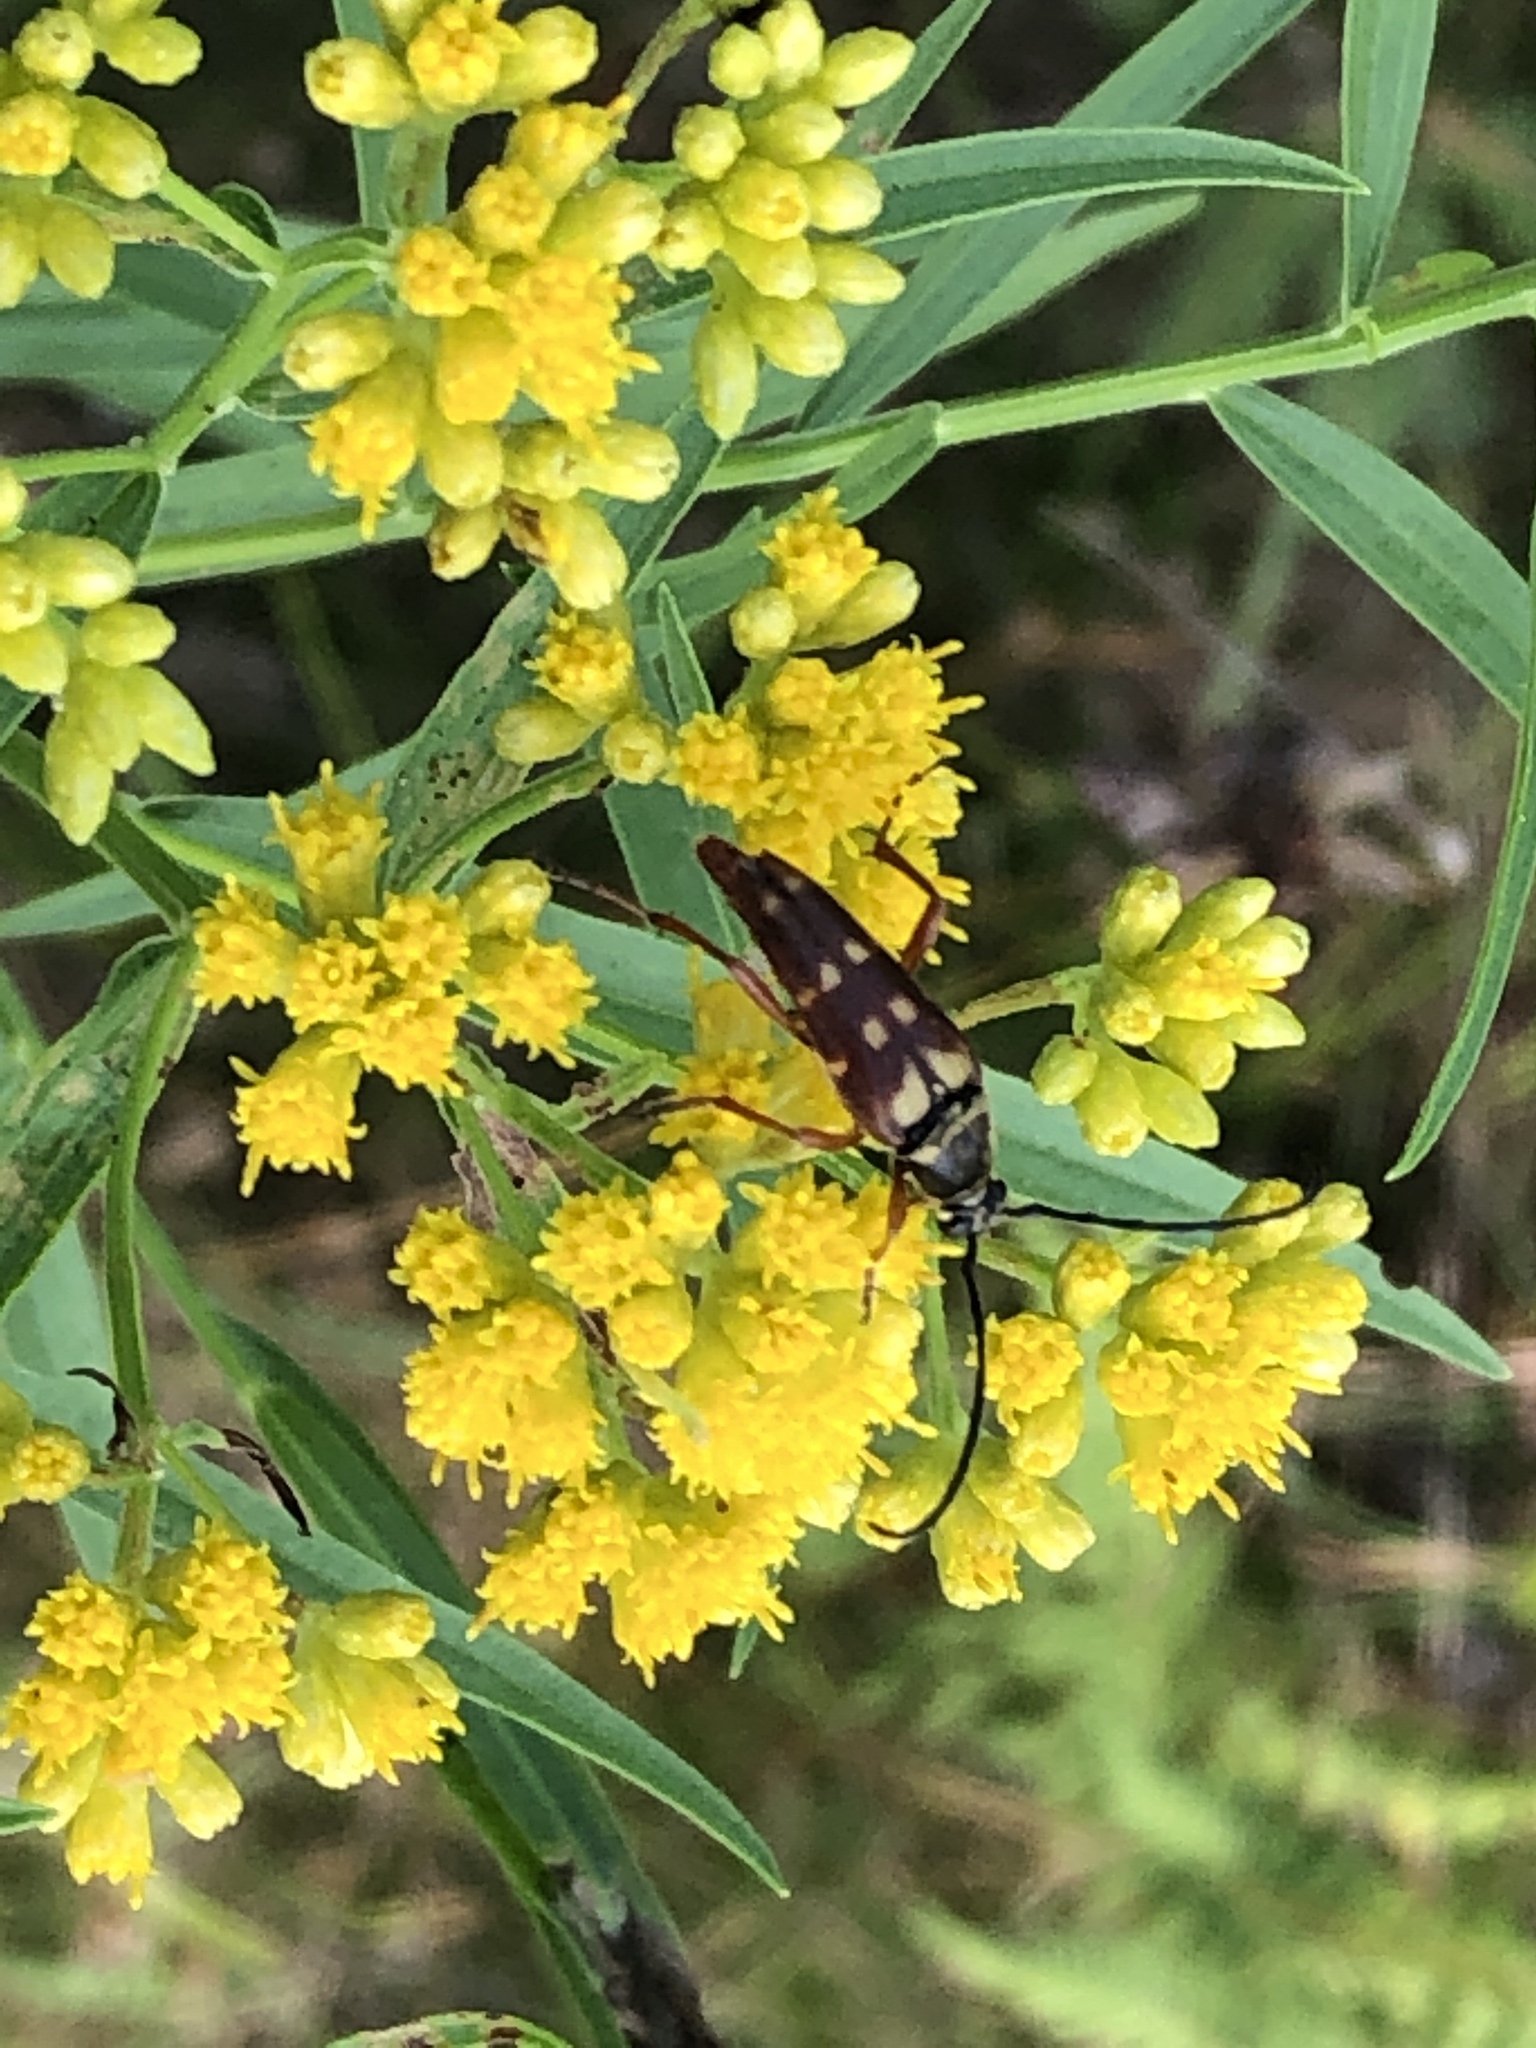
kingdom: Animalia
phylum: Arthropoda
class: Insecta
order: Coleoptera
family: Cerambycidae
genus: Typocerus
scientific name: Typocerus velutinus
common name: Banded longhorn beetle
